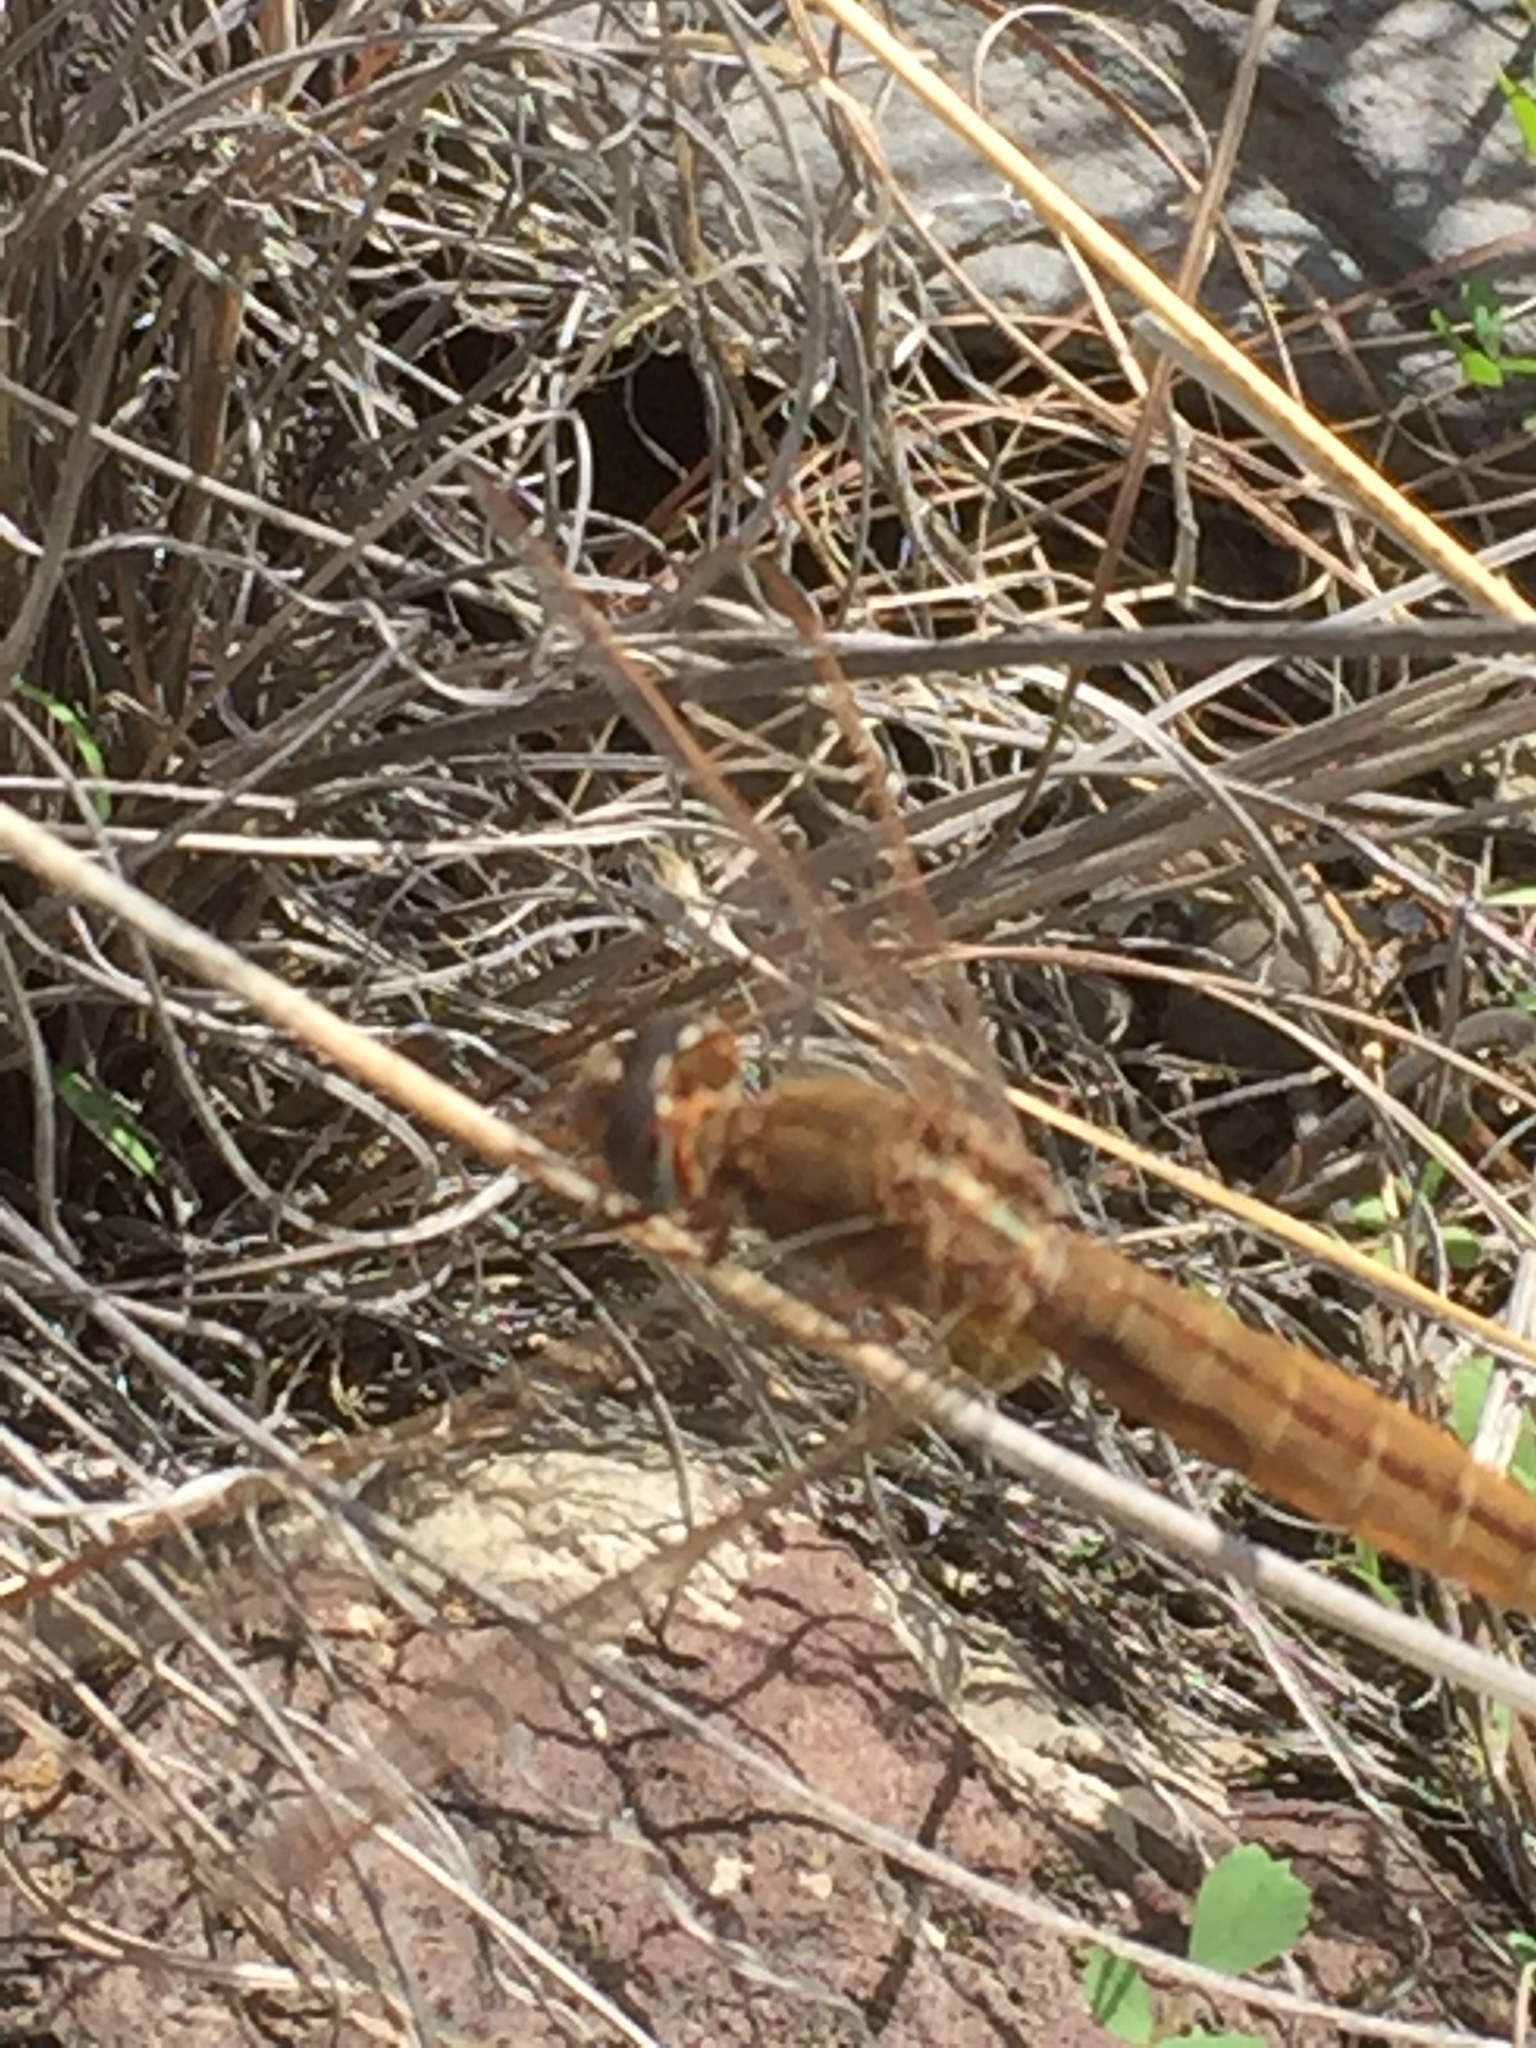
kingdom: Animalia
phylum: Arthropoda
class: Insecta
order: Odonata
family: Libellulidae
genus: Crocothemis
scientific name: Crocothemis erythraea
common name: Scarlet dragonfly
